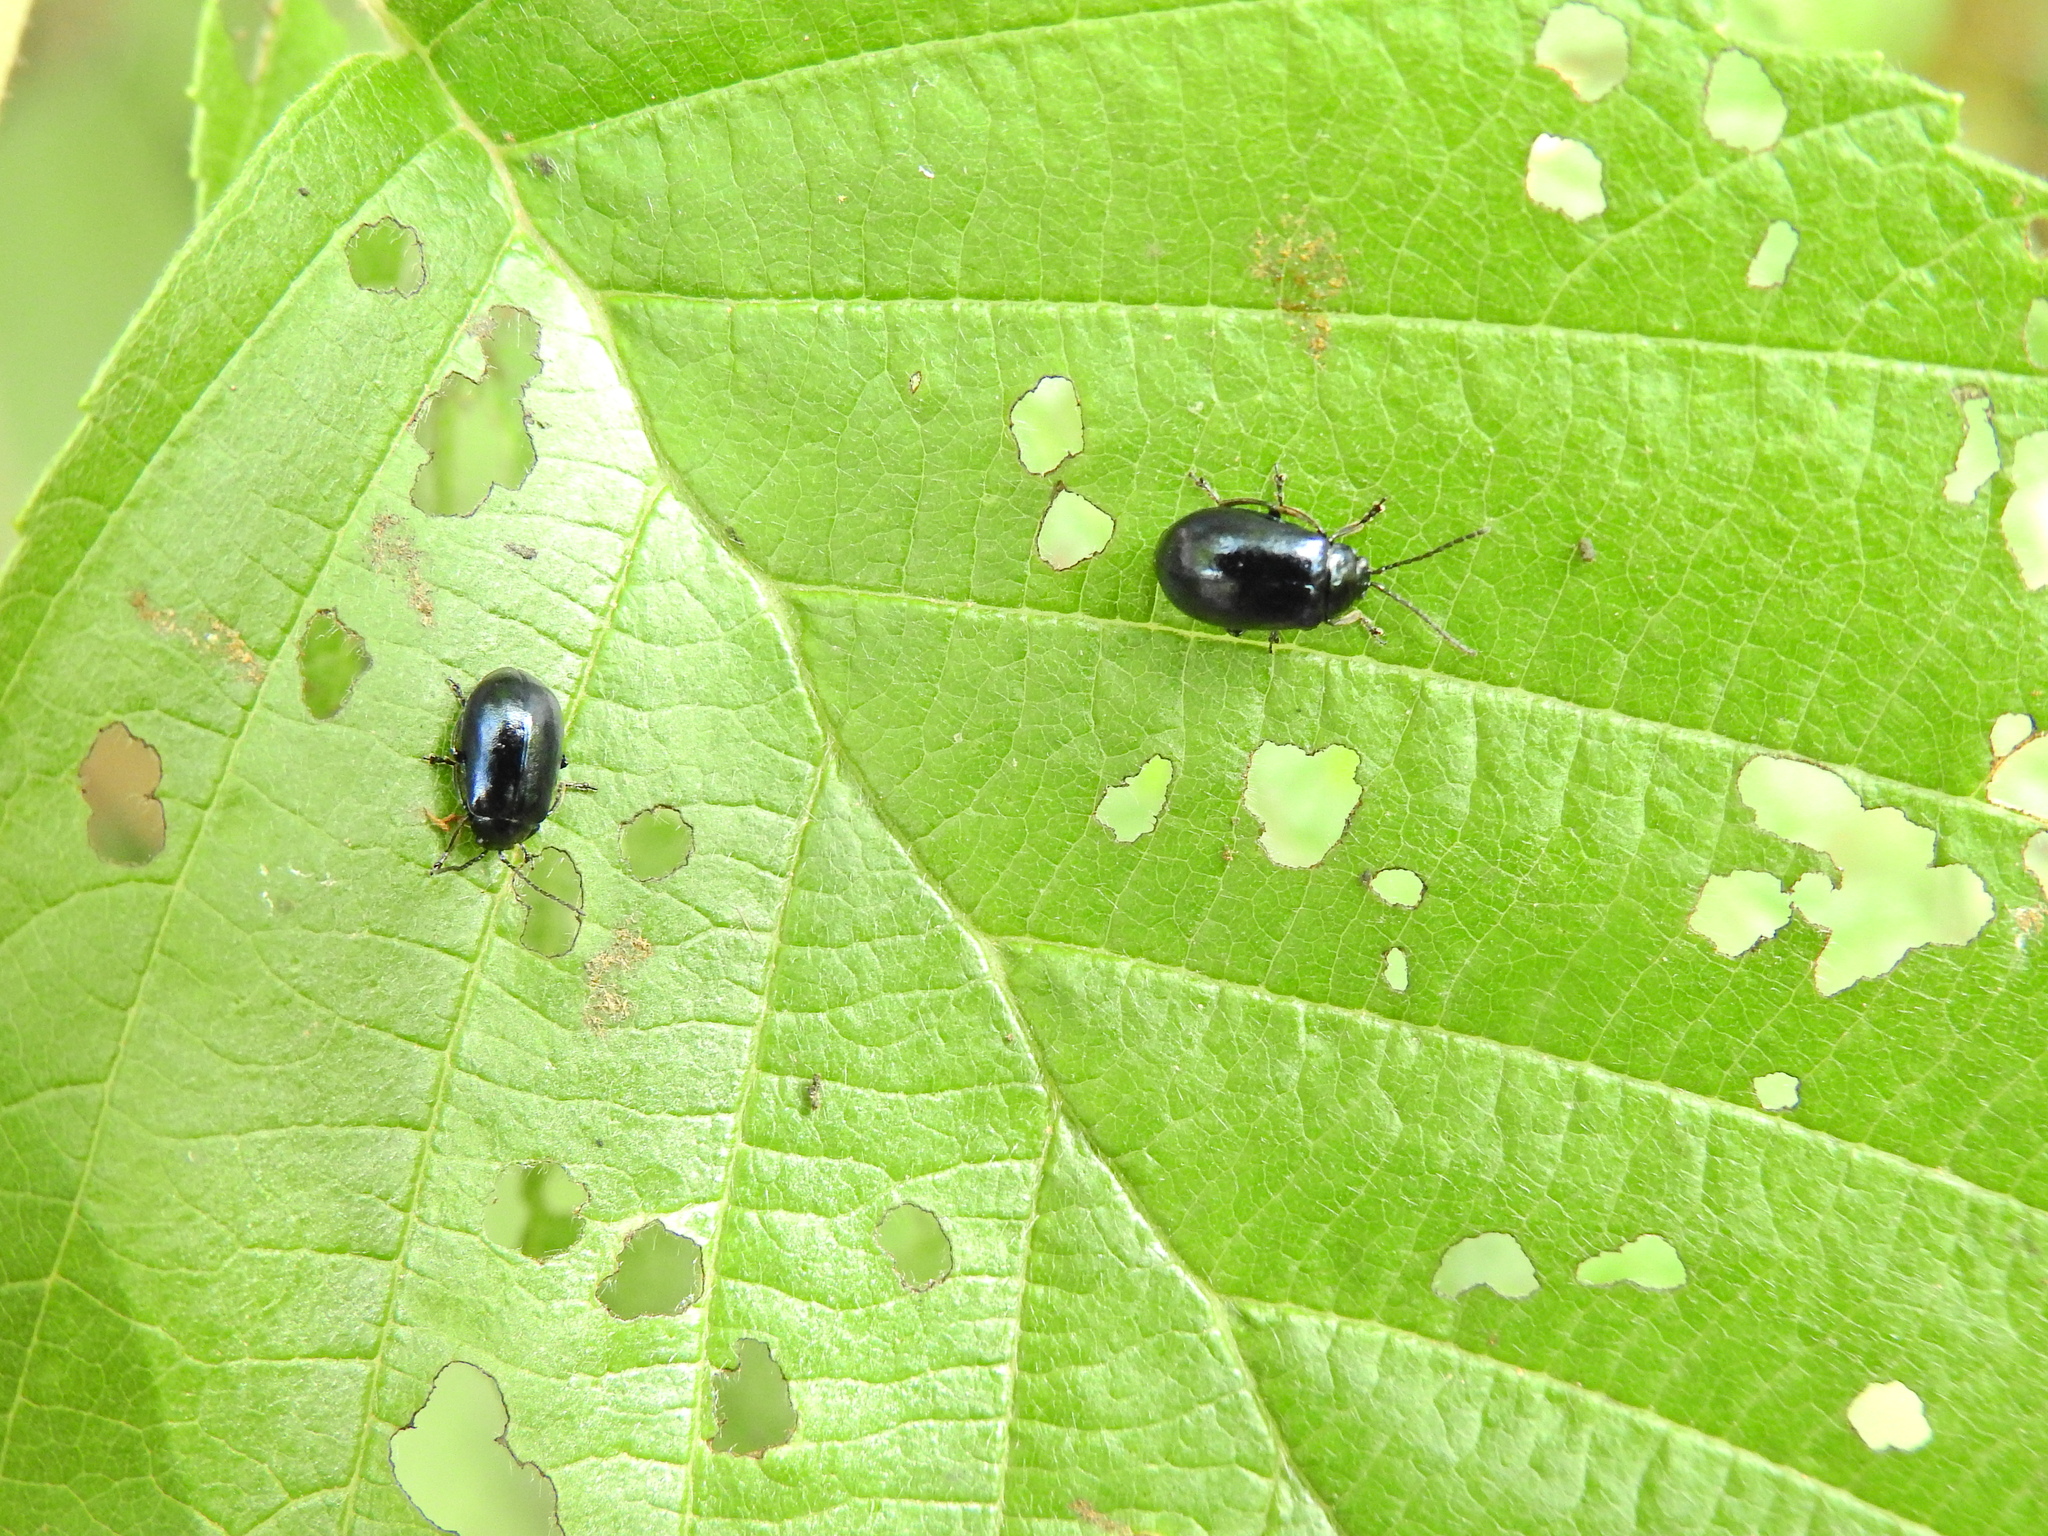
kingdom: Animalia
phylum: Arthropoda
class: Insecta
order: Coleoptera
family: Chrysomelidae
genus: Agelastica
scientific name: Agelastica alni
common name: Alder leaf beetle
